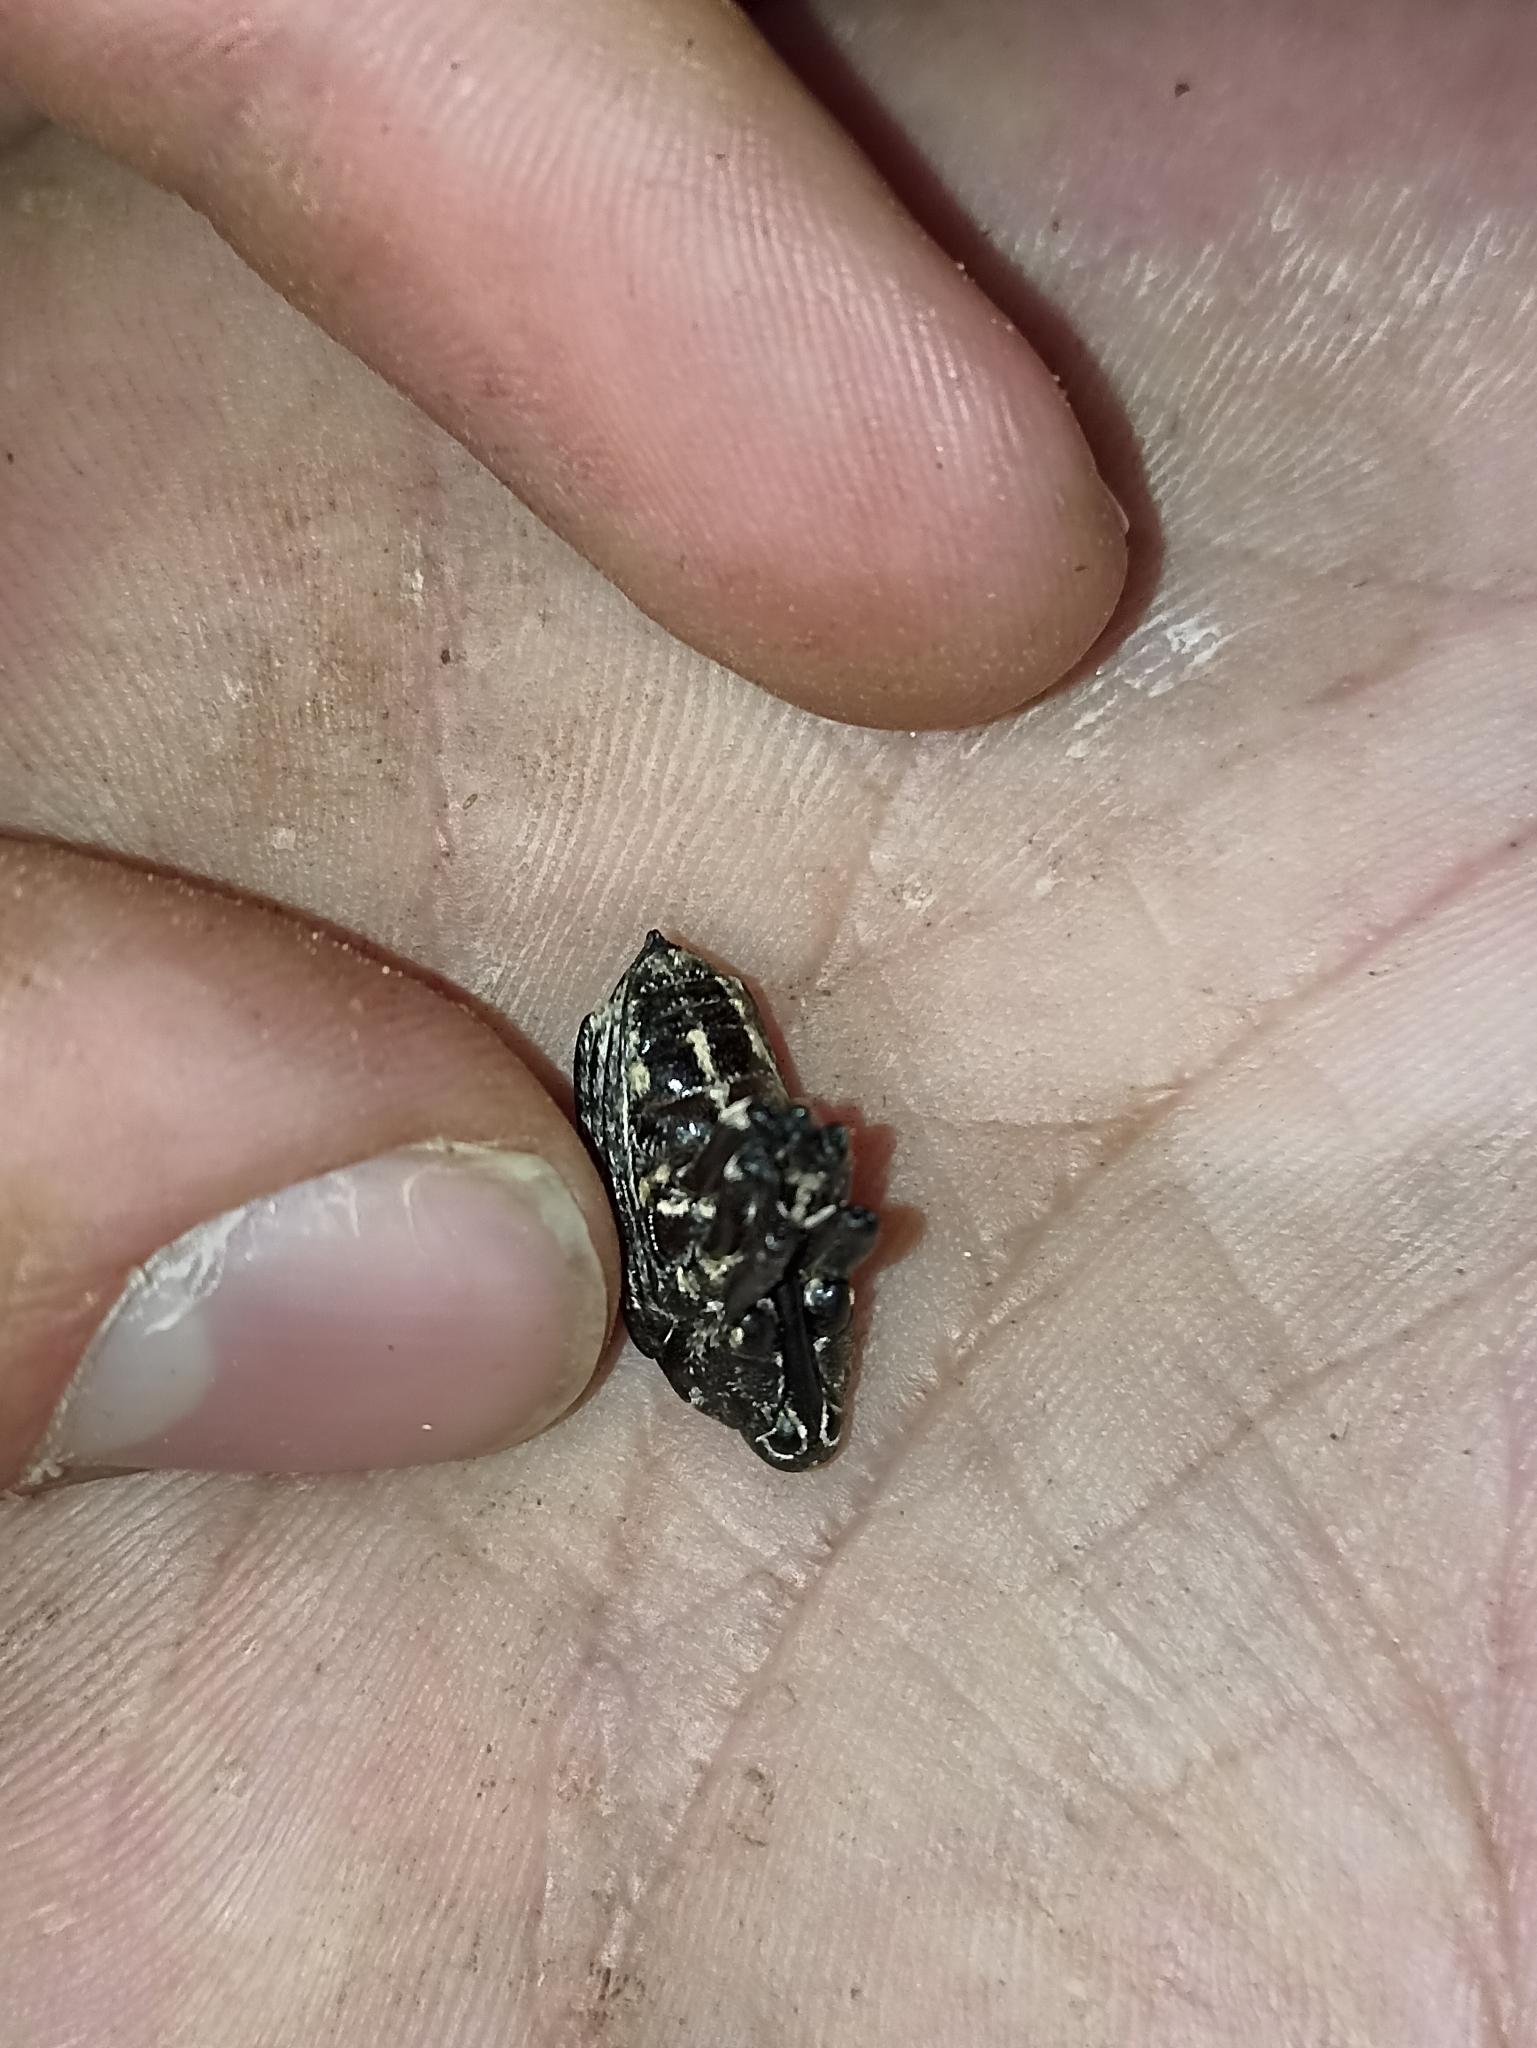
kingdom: Animalia
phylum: Arthropoda
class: Insecta
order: Coleoptera
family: Curculionidae
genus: Rhynchodes
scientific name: Rhynchodes ursus
